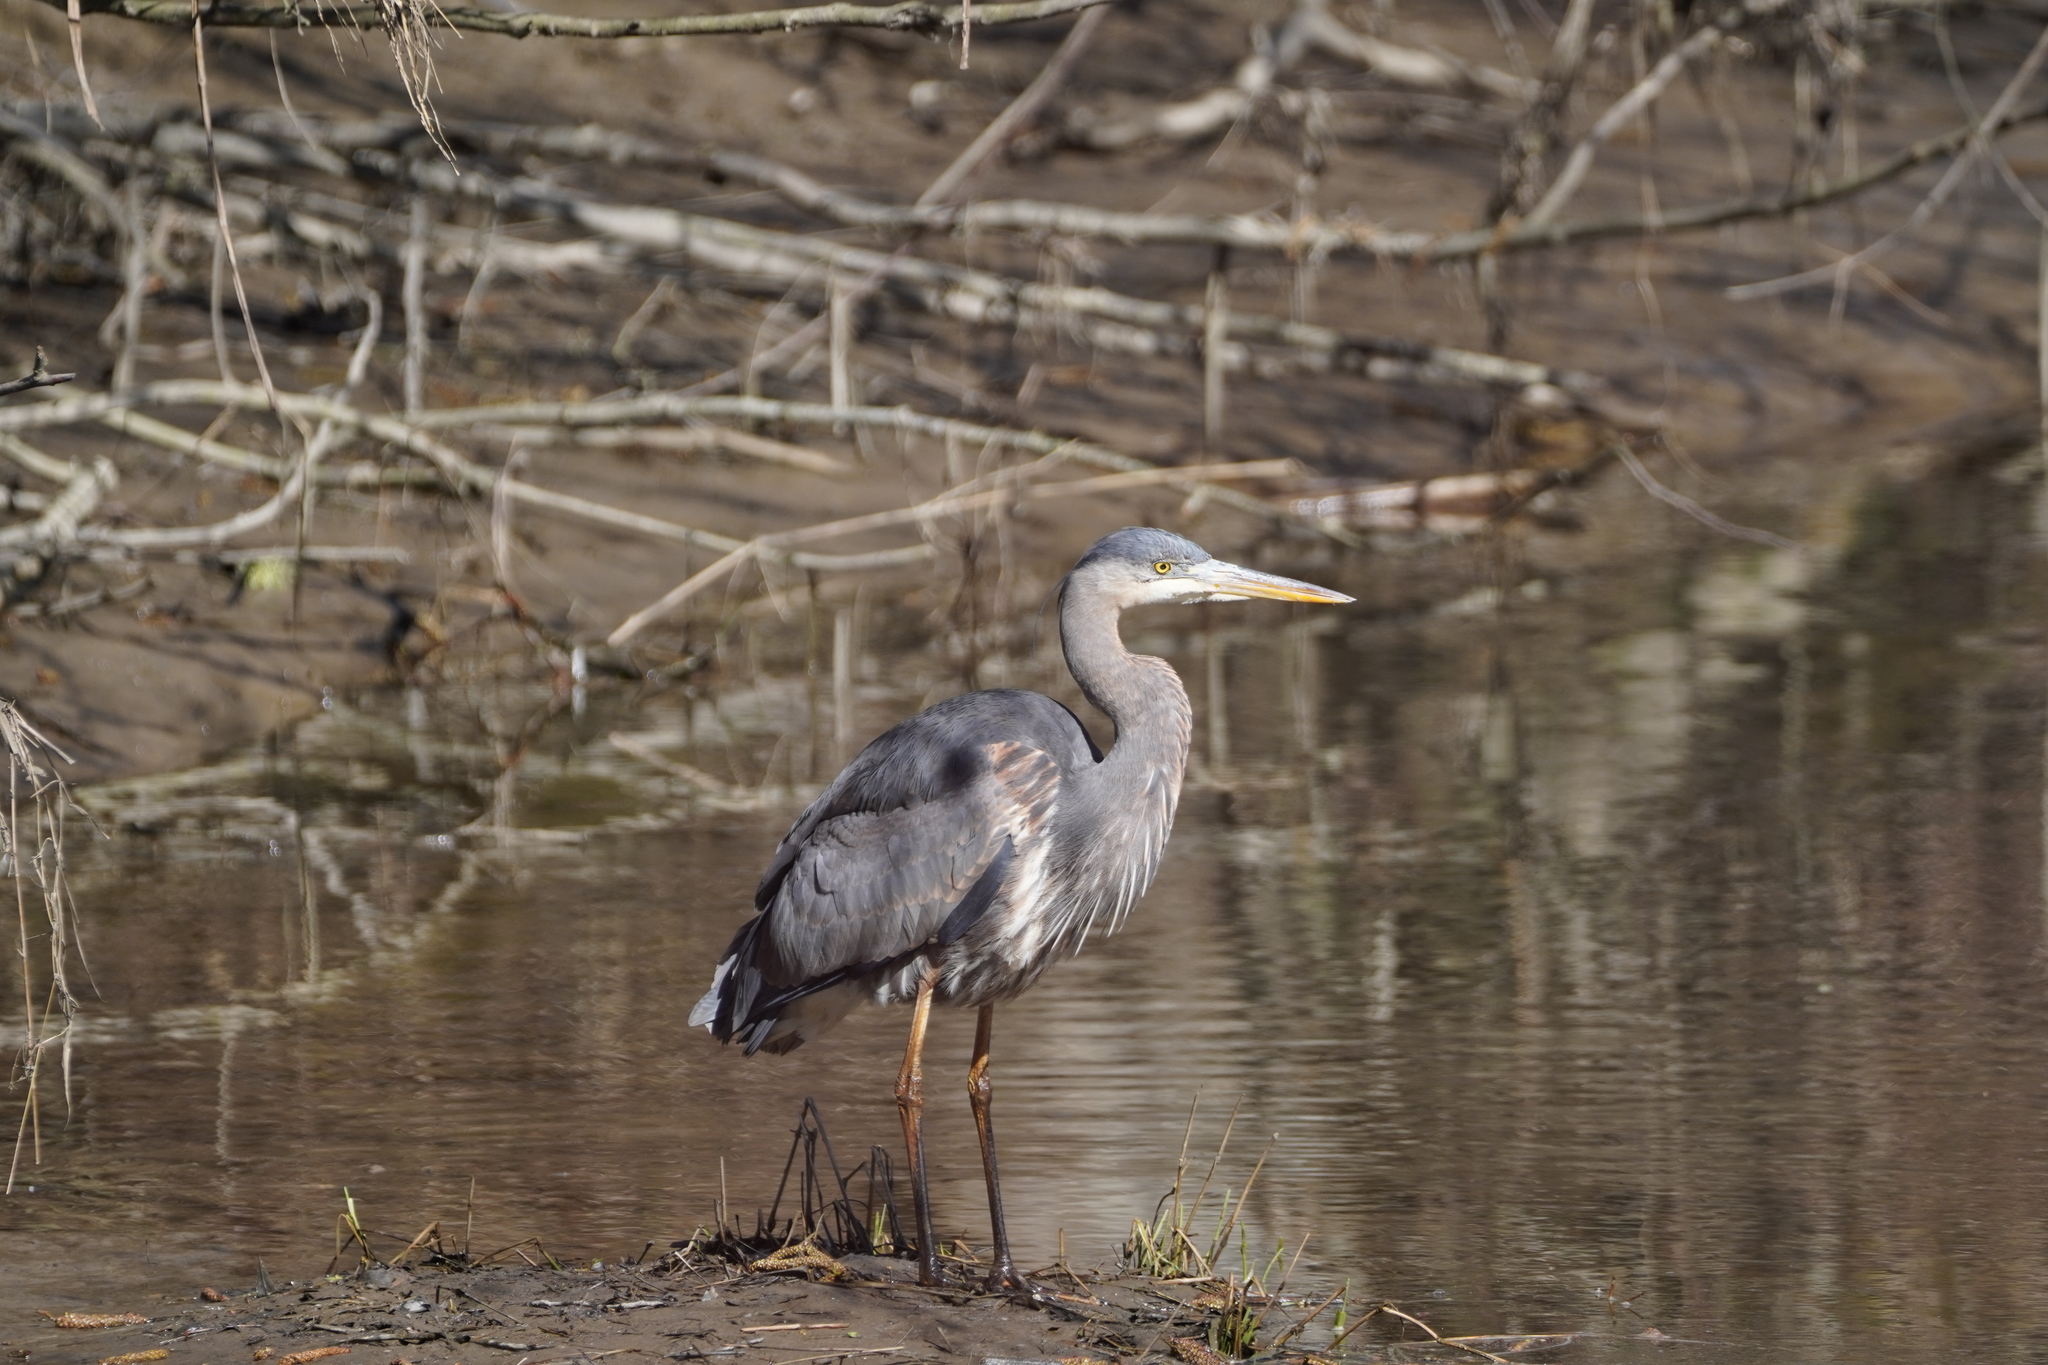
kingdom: Animalia
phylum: Chordata
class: Aves
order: Pelecaniformes
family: Ardeidae
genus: Ardea
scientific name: Ardea herodias
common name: Great blue heron
